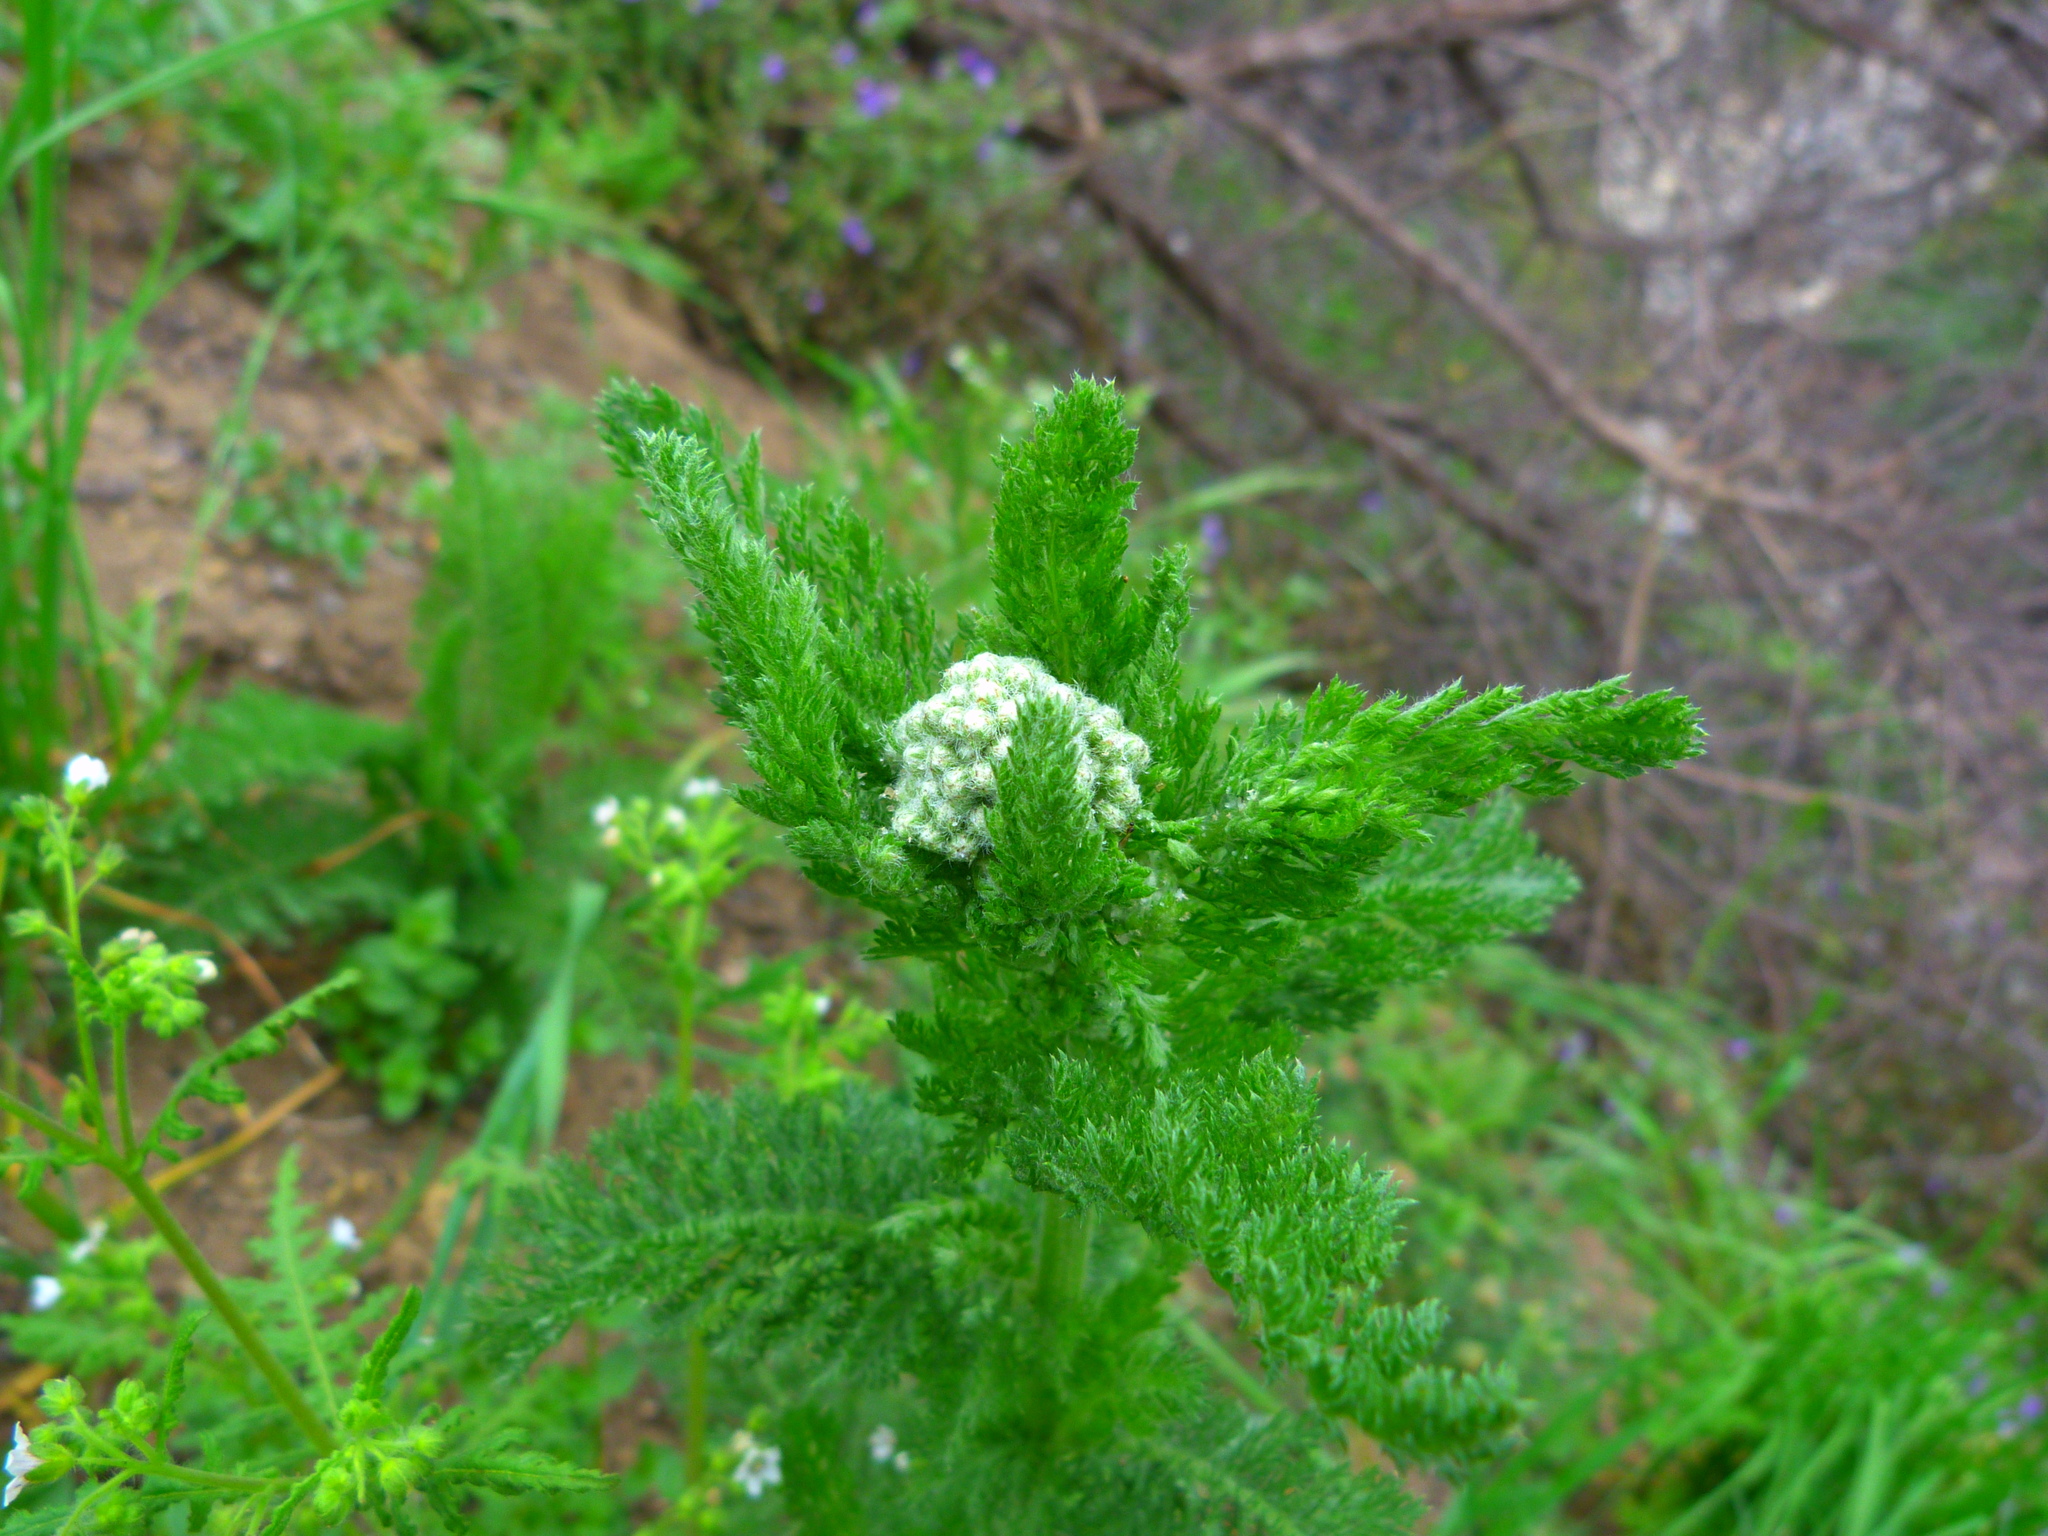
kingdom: Plantae
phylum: Tracheophyta
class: Magnoliopsida
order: Asterales
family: Asteraceae
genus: Achillea
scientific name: Achillea millefolium
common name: Yarrow
